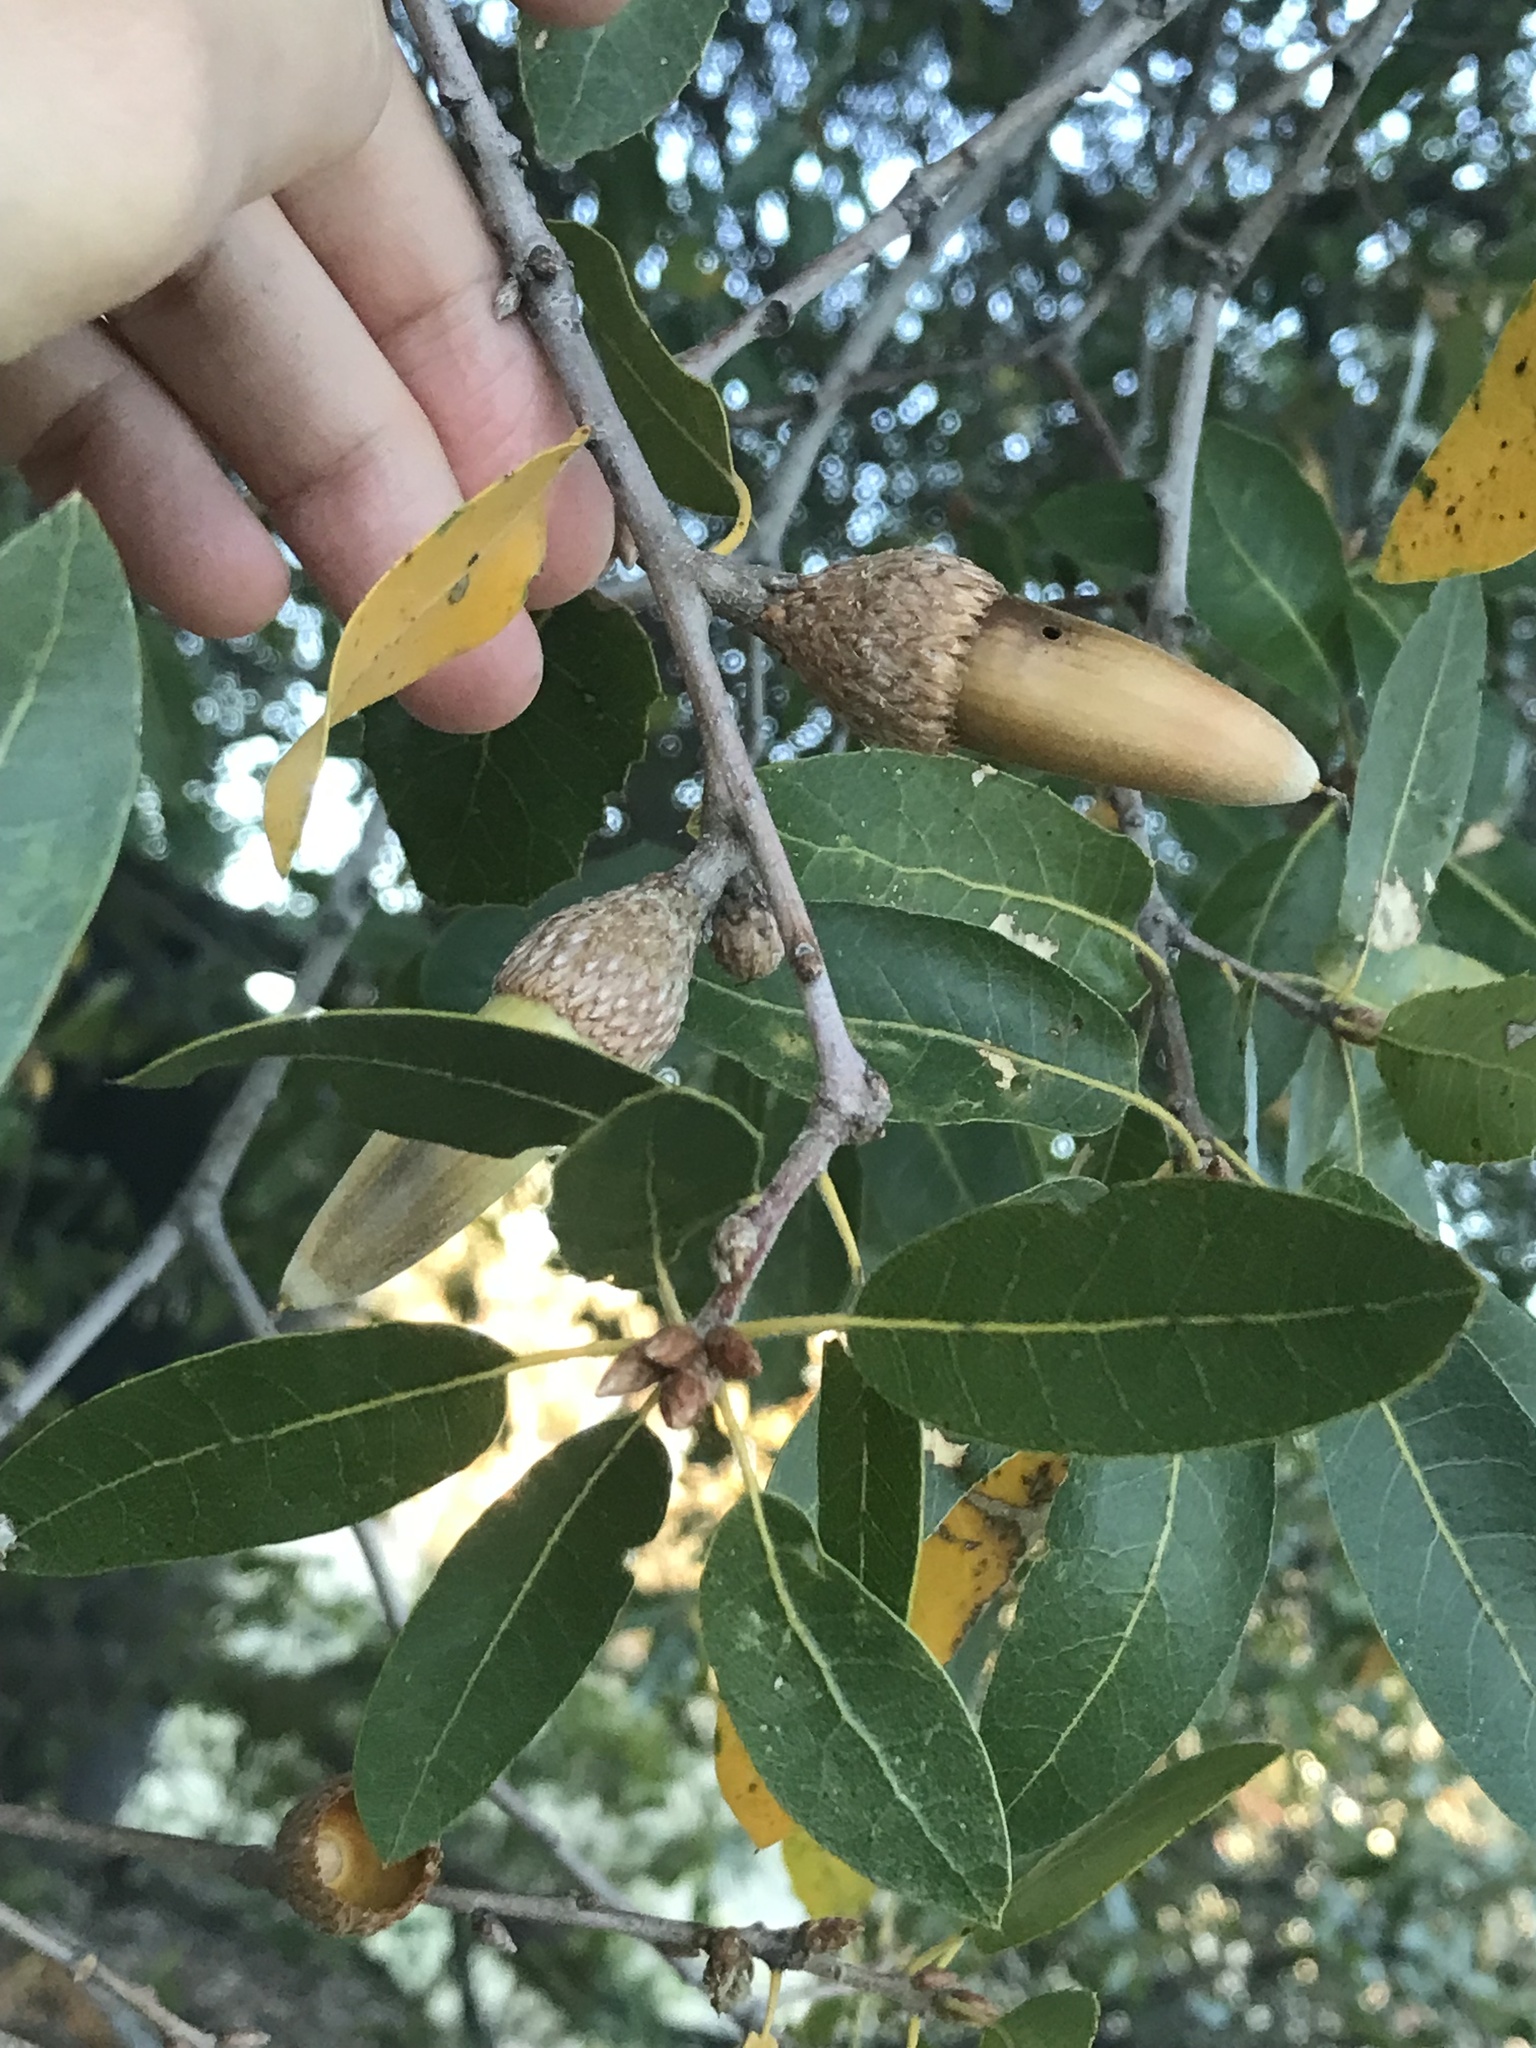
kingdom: Plantae
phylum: Tracheophyta
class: Magnoliopsida
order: Fagales
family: Fagaceae
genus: Quercus
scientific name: Quercus wislizeni
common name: Interior live oak
